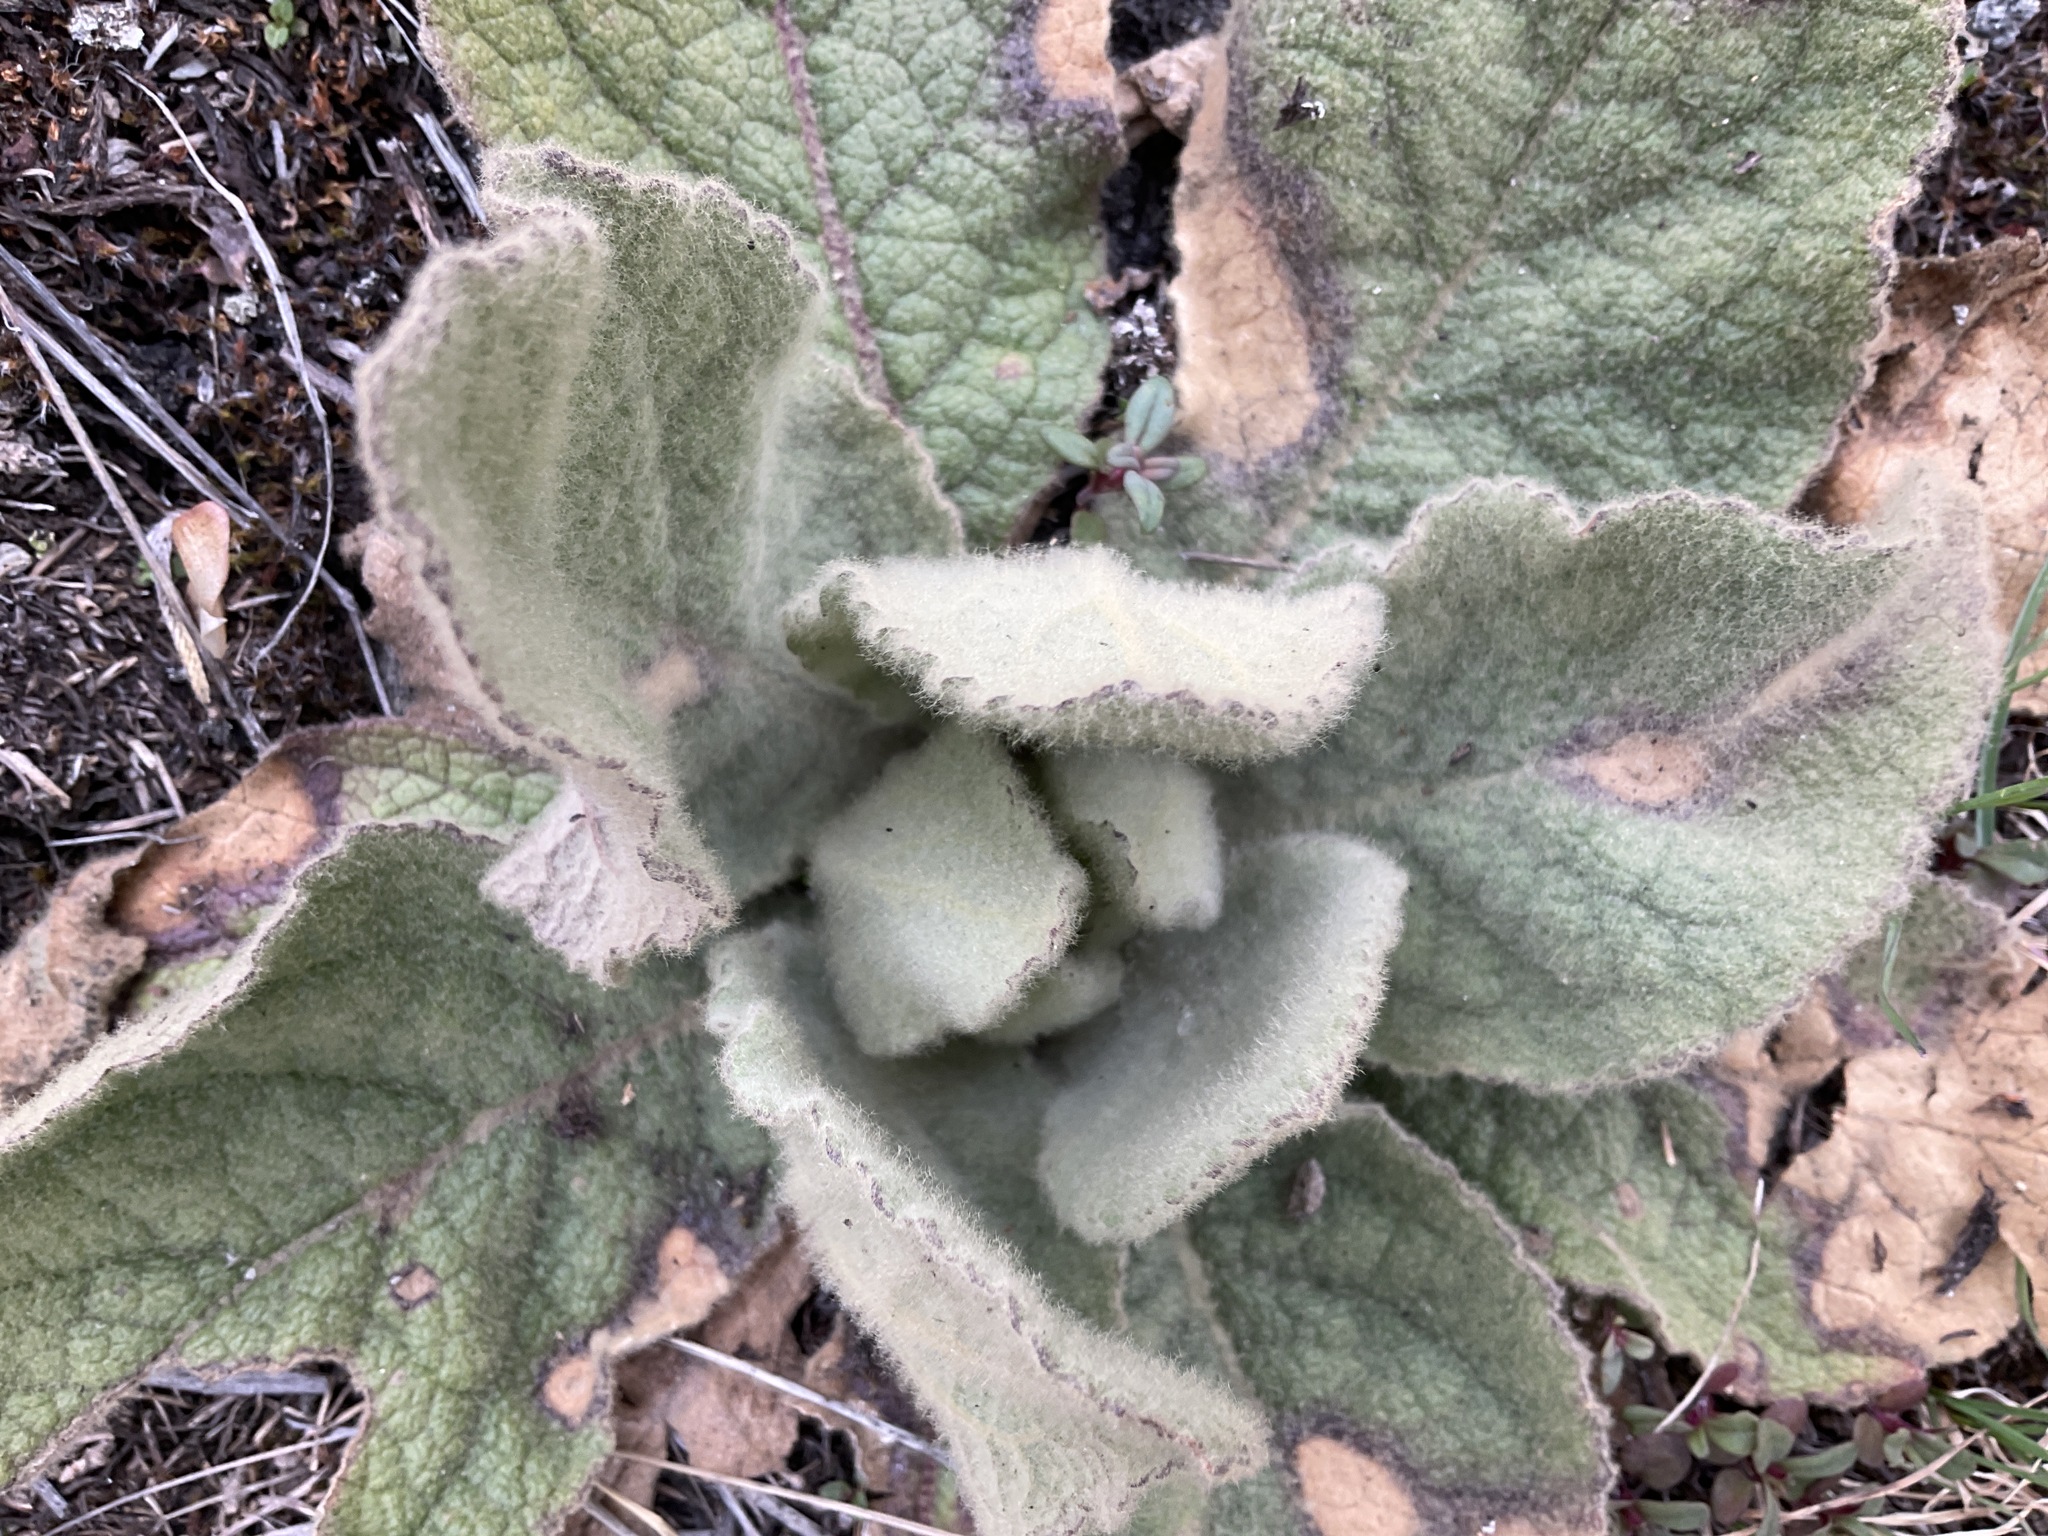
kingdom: Plantae
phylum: Tracheophyta
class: Magnoliopsida
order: Lamiales
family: Scrophulariaceae
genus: Verbascum
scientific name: Verbascum thapsus
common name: Common mullein
